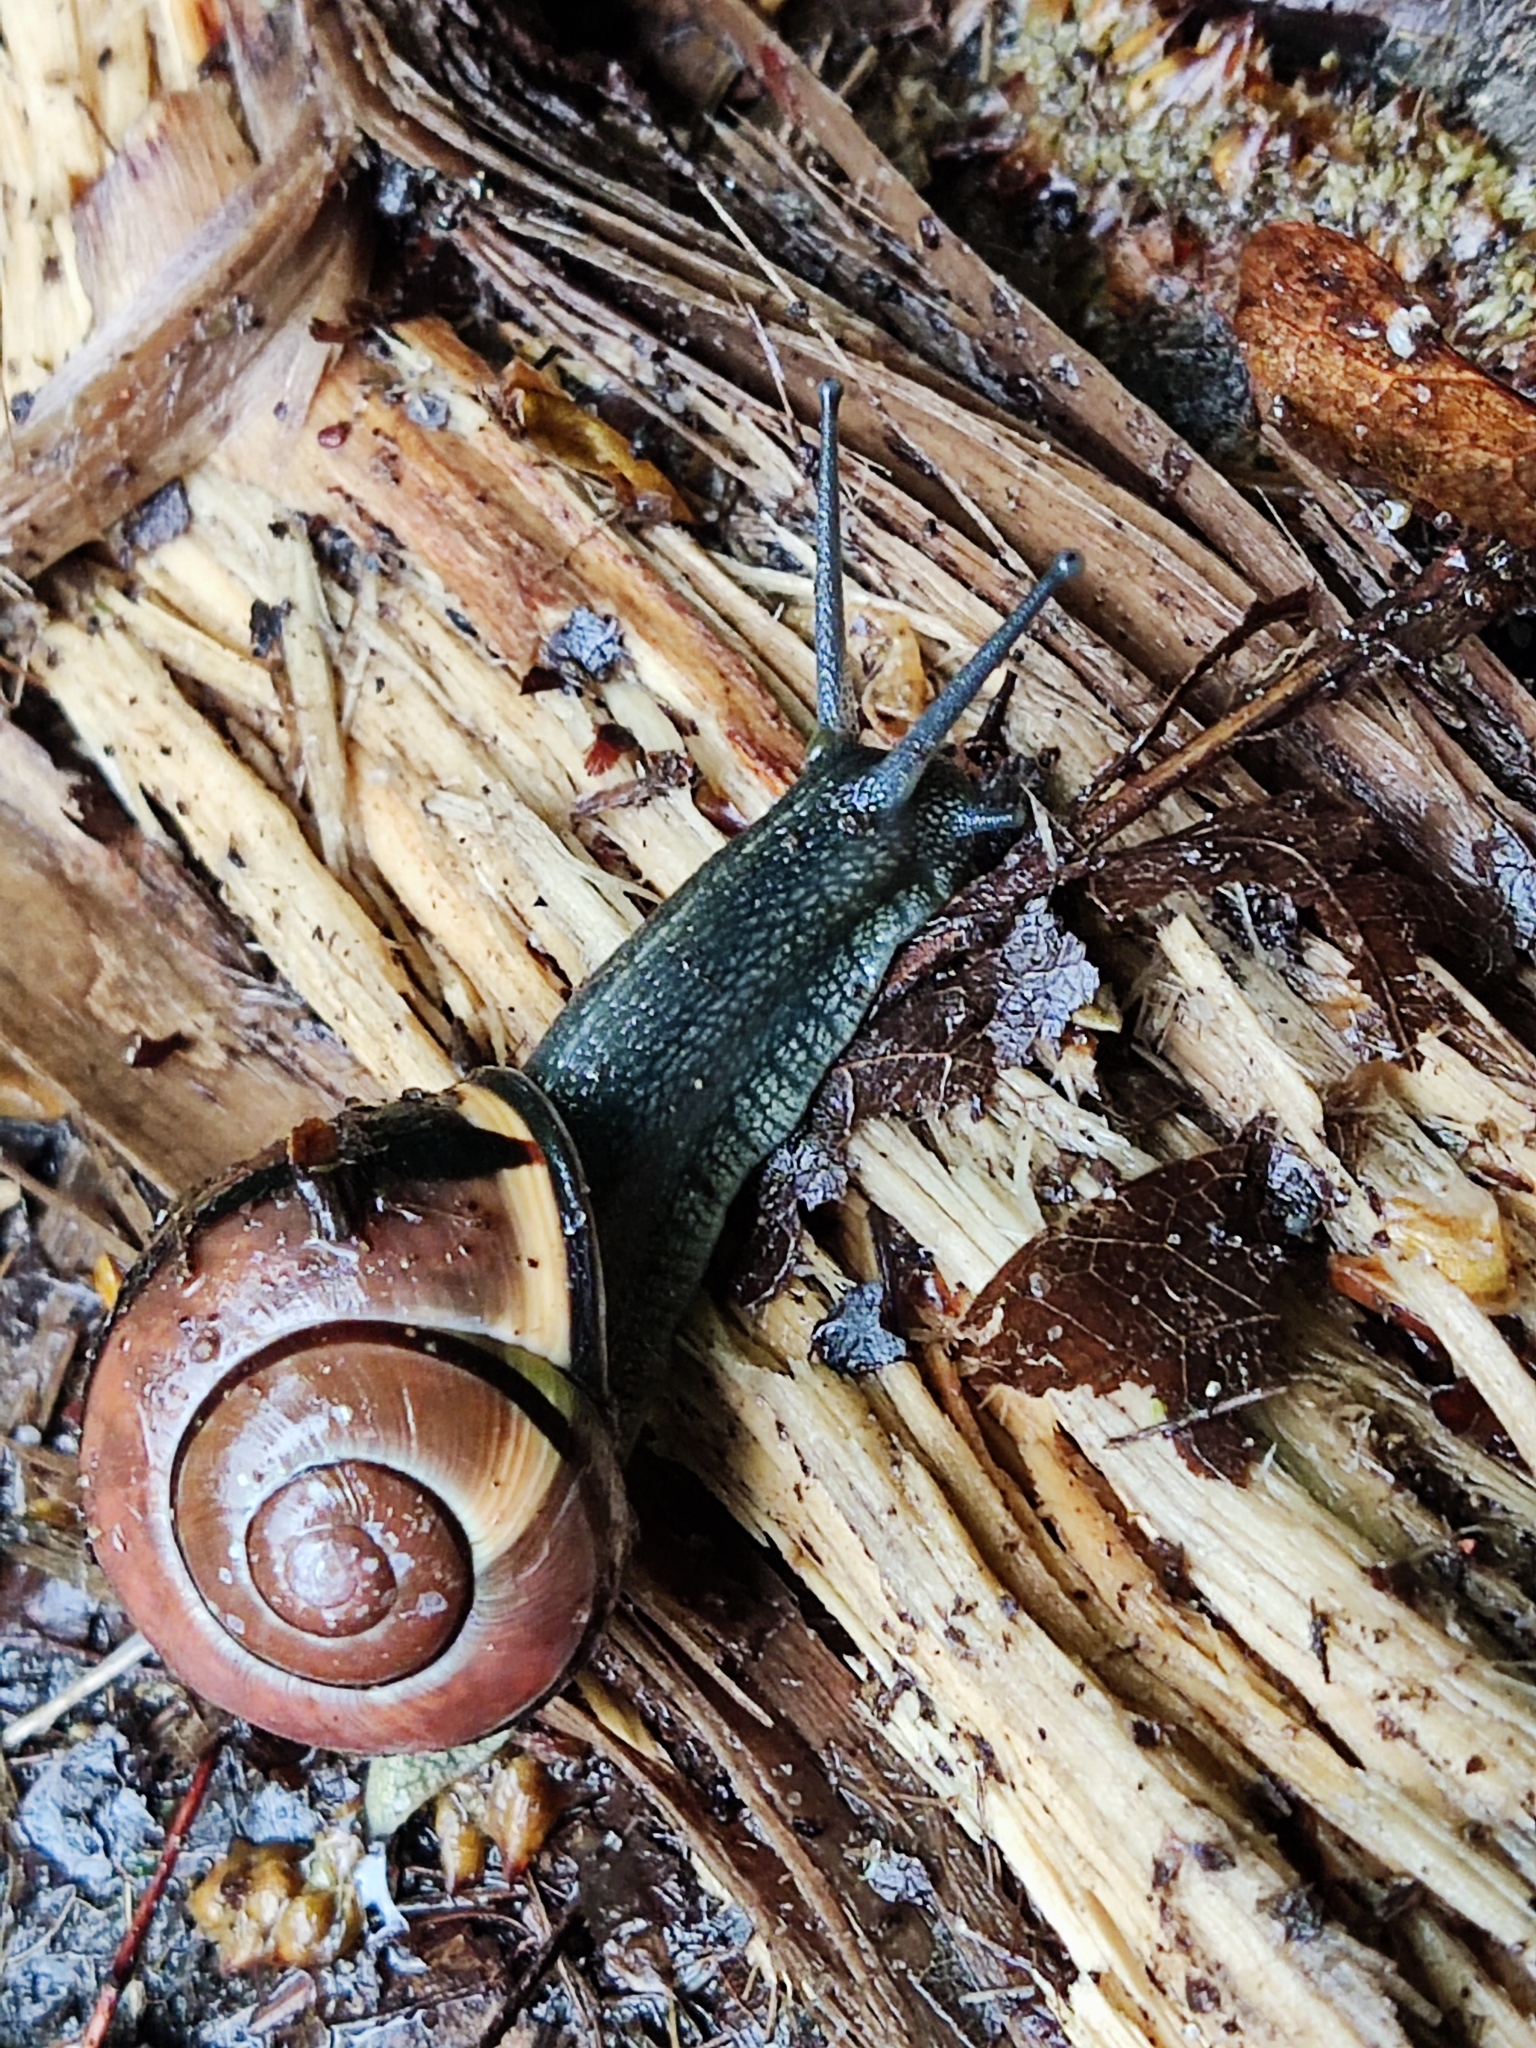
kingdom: Animalia
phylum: Mollusca
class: Gastropoda
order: Stylommatophora
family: Helicidae
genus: Cepaea
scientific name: Cepaea nemoralis
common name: Grovesnail
